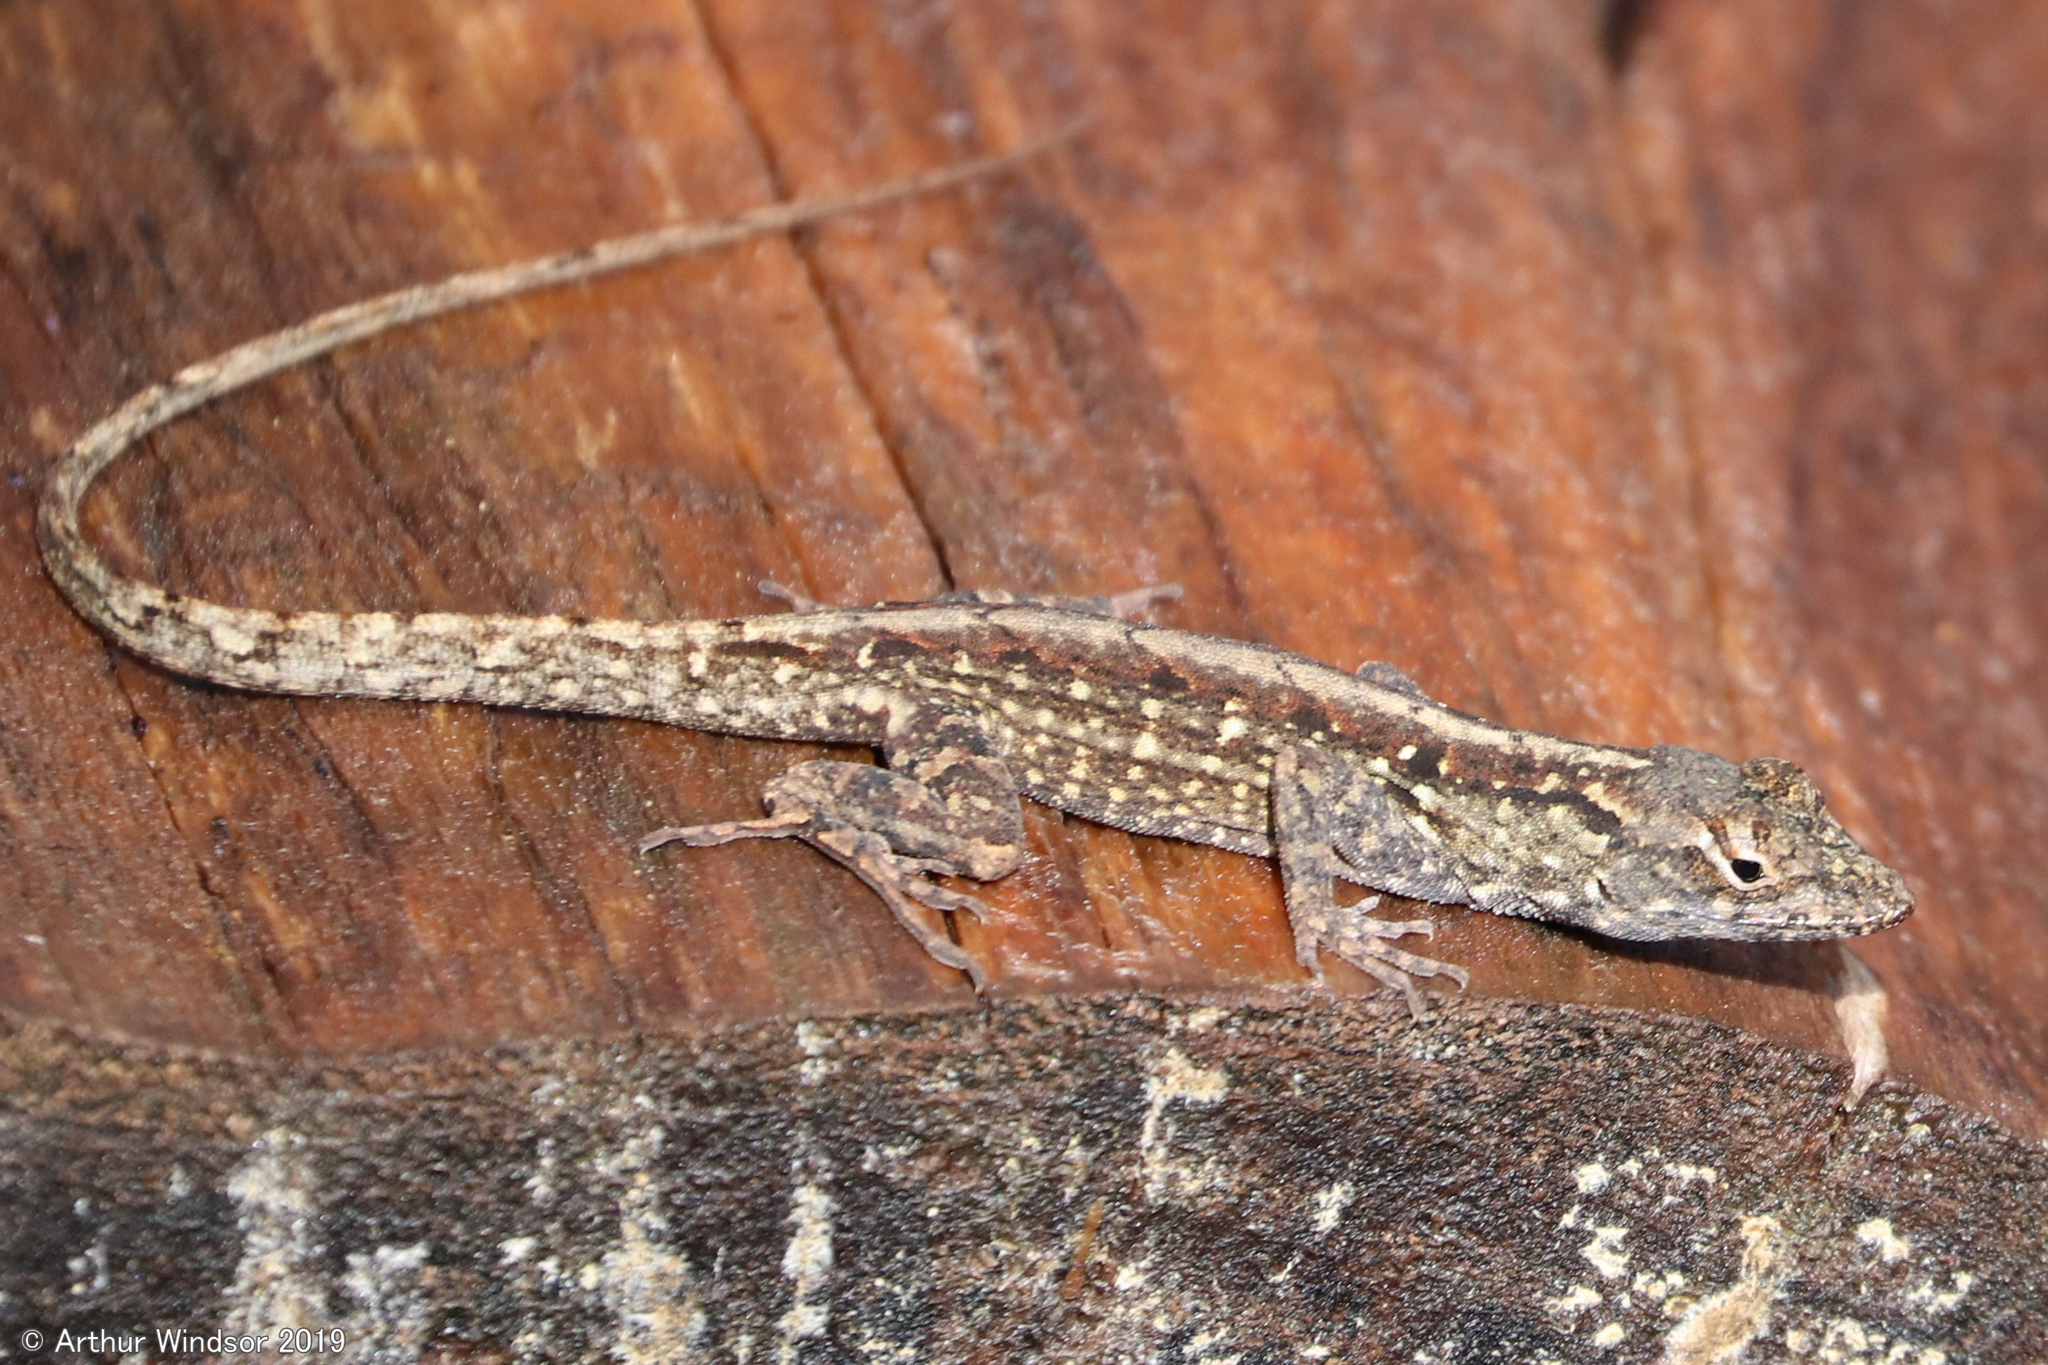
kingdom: Animalia
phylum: Chordata
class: Squamata
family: Dactyloidae
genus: Anolis
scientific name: Anolis sagrei
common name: Brown anole
